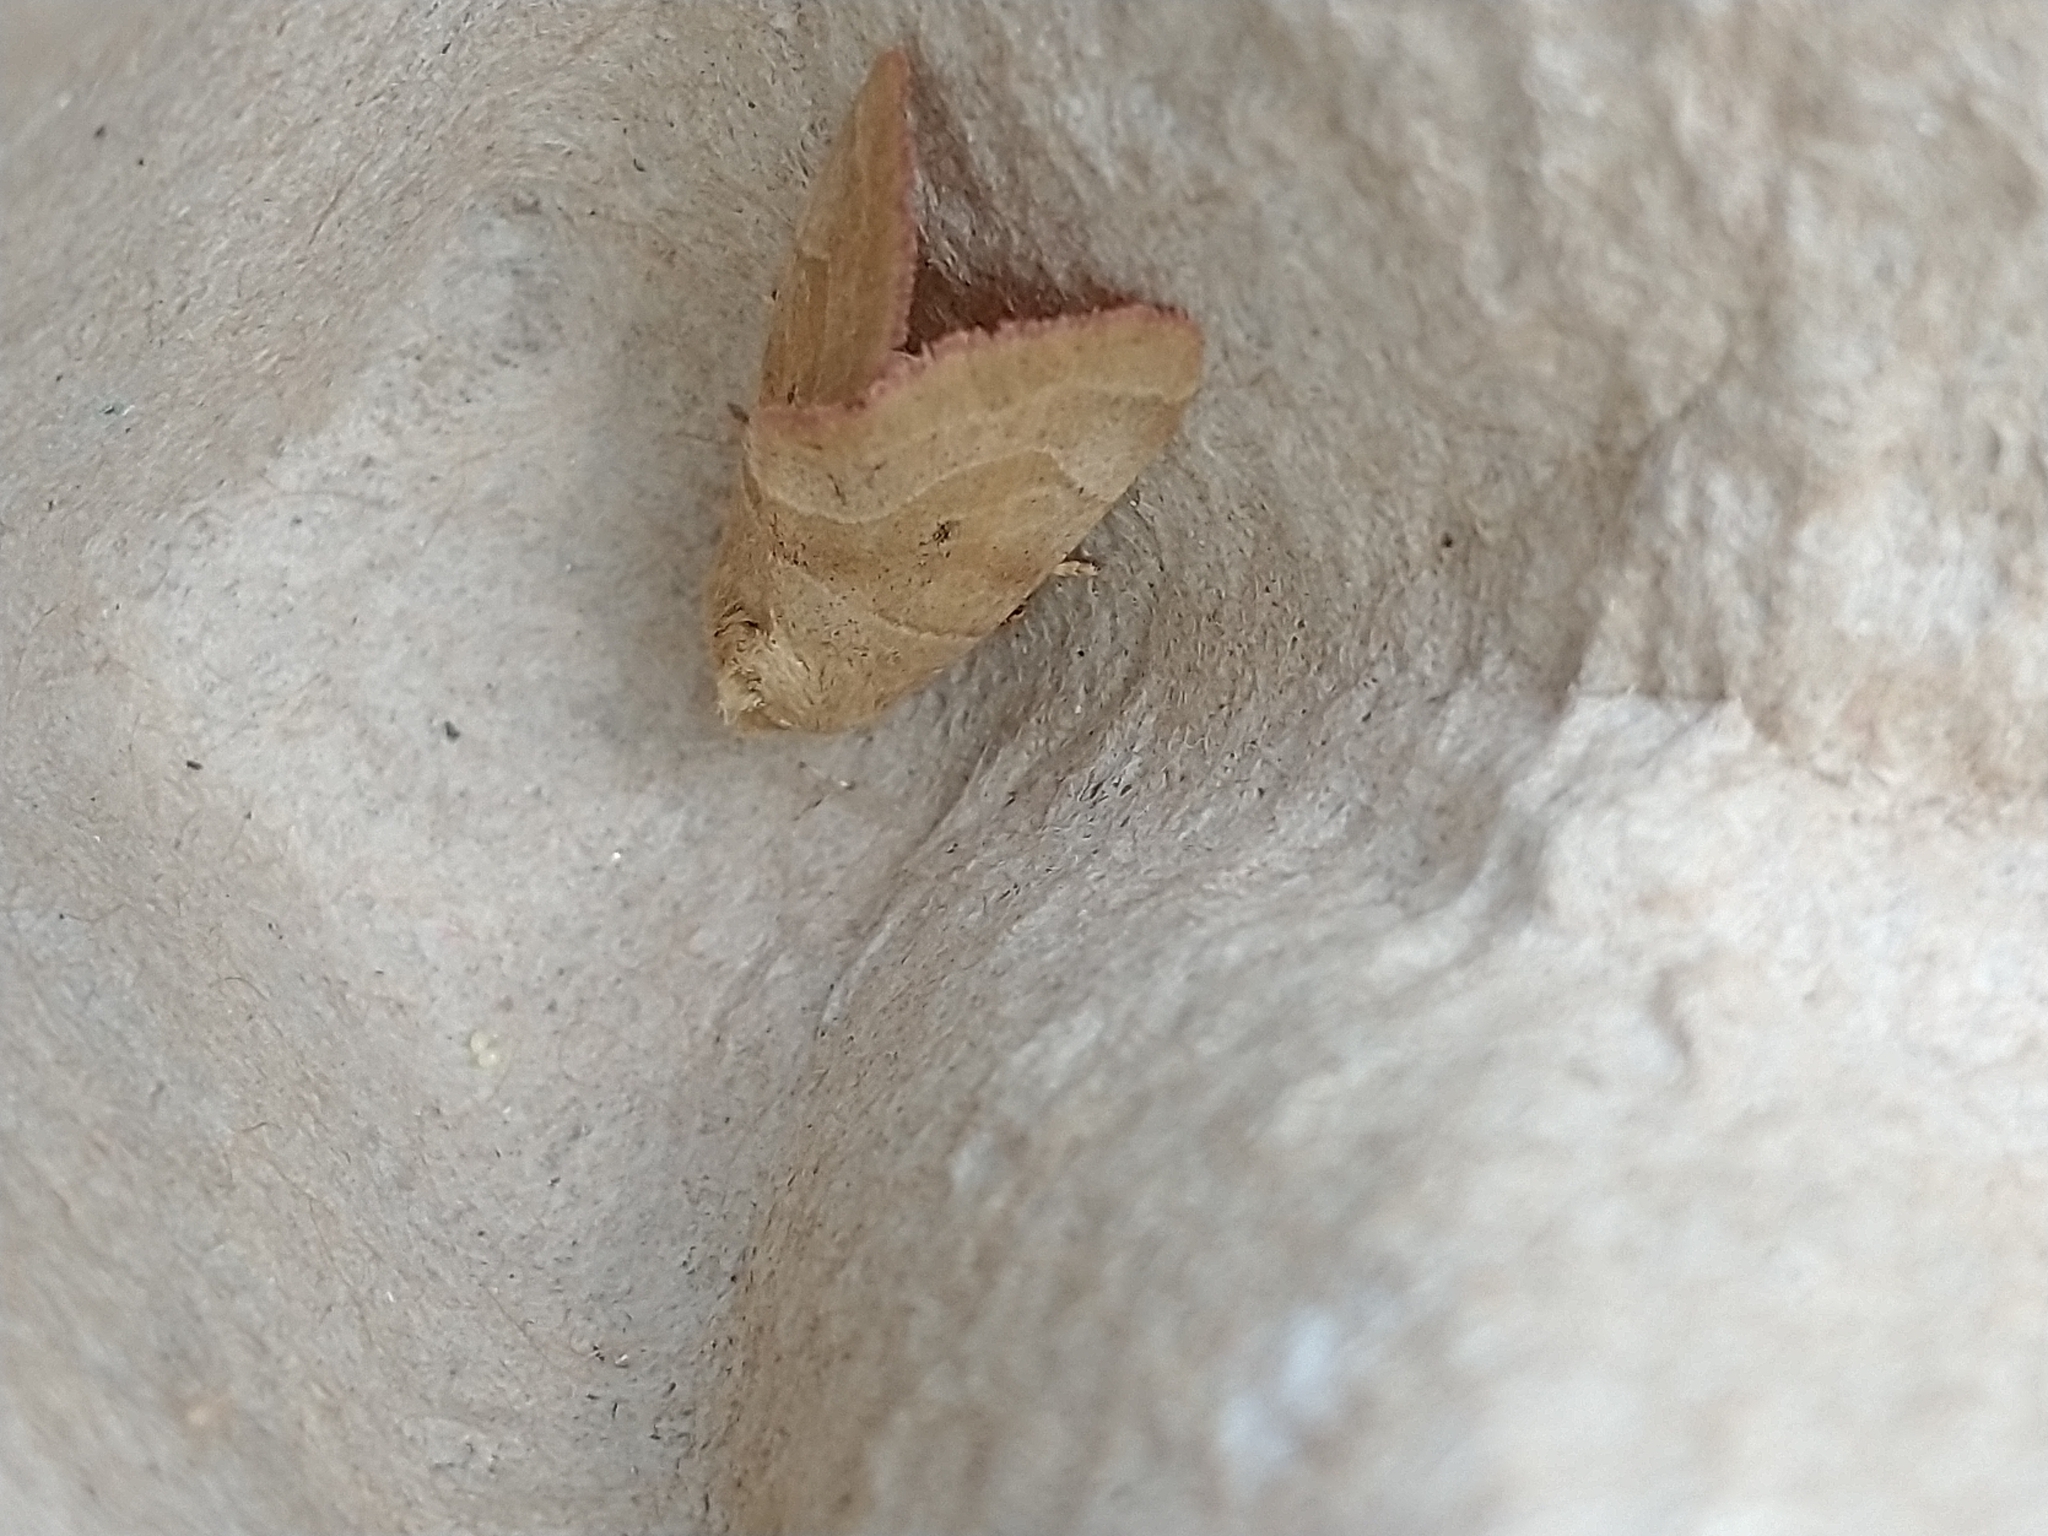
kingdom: Animalia
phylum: Arthropoda
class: Insecta
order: Lepidoptera
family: Noctuidae
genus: Cosmia
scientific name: Cosmia trapezina
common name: Dun-bar
